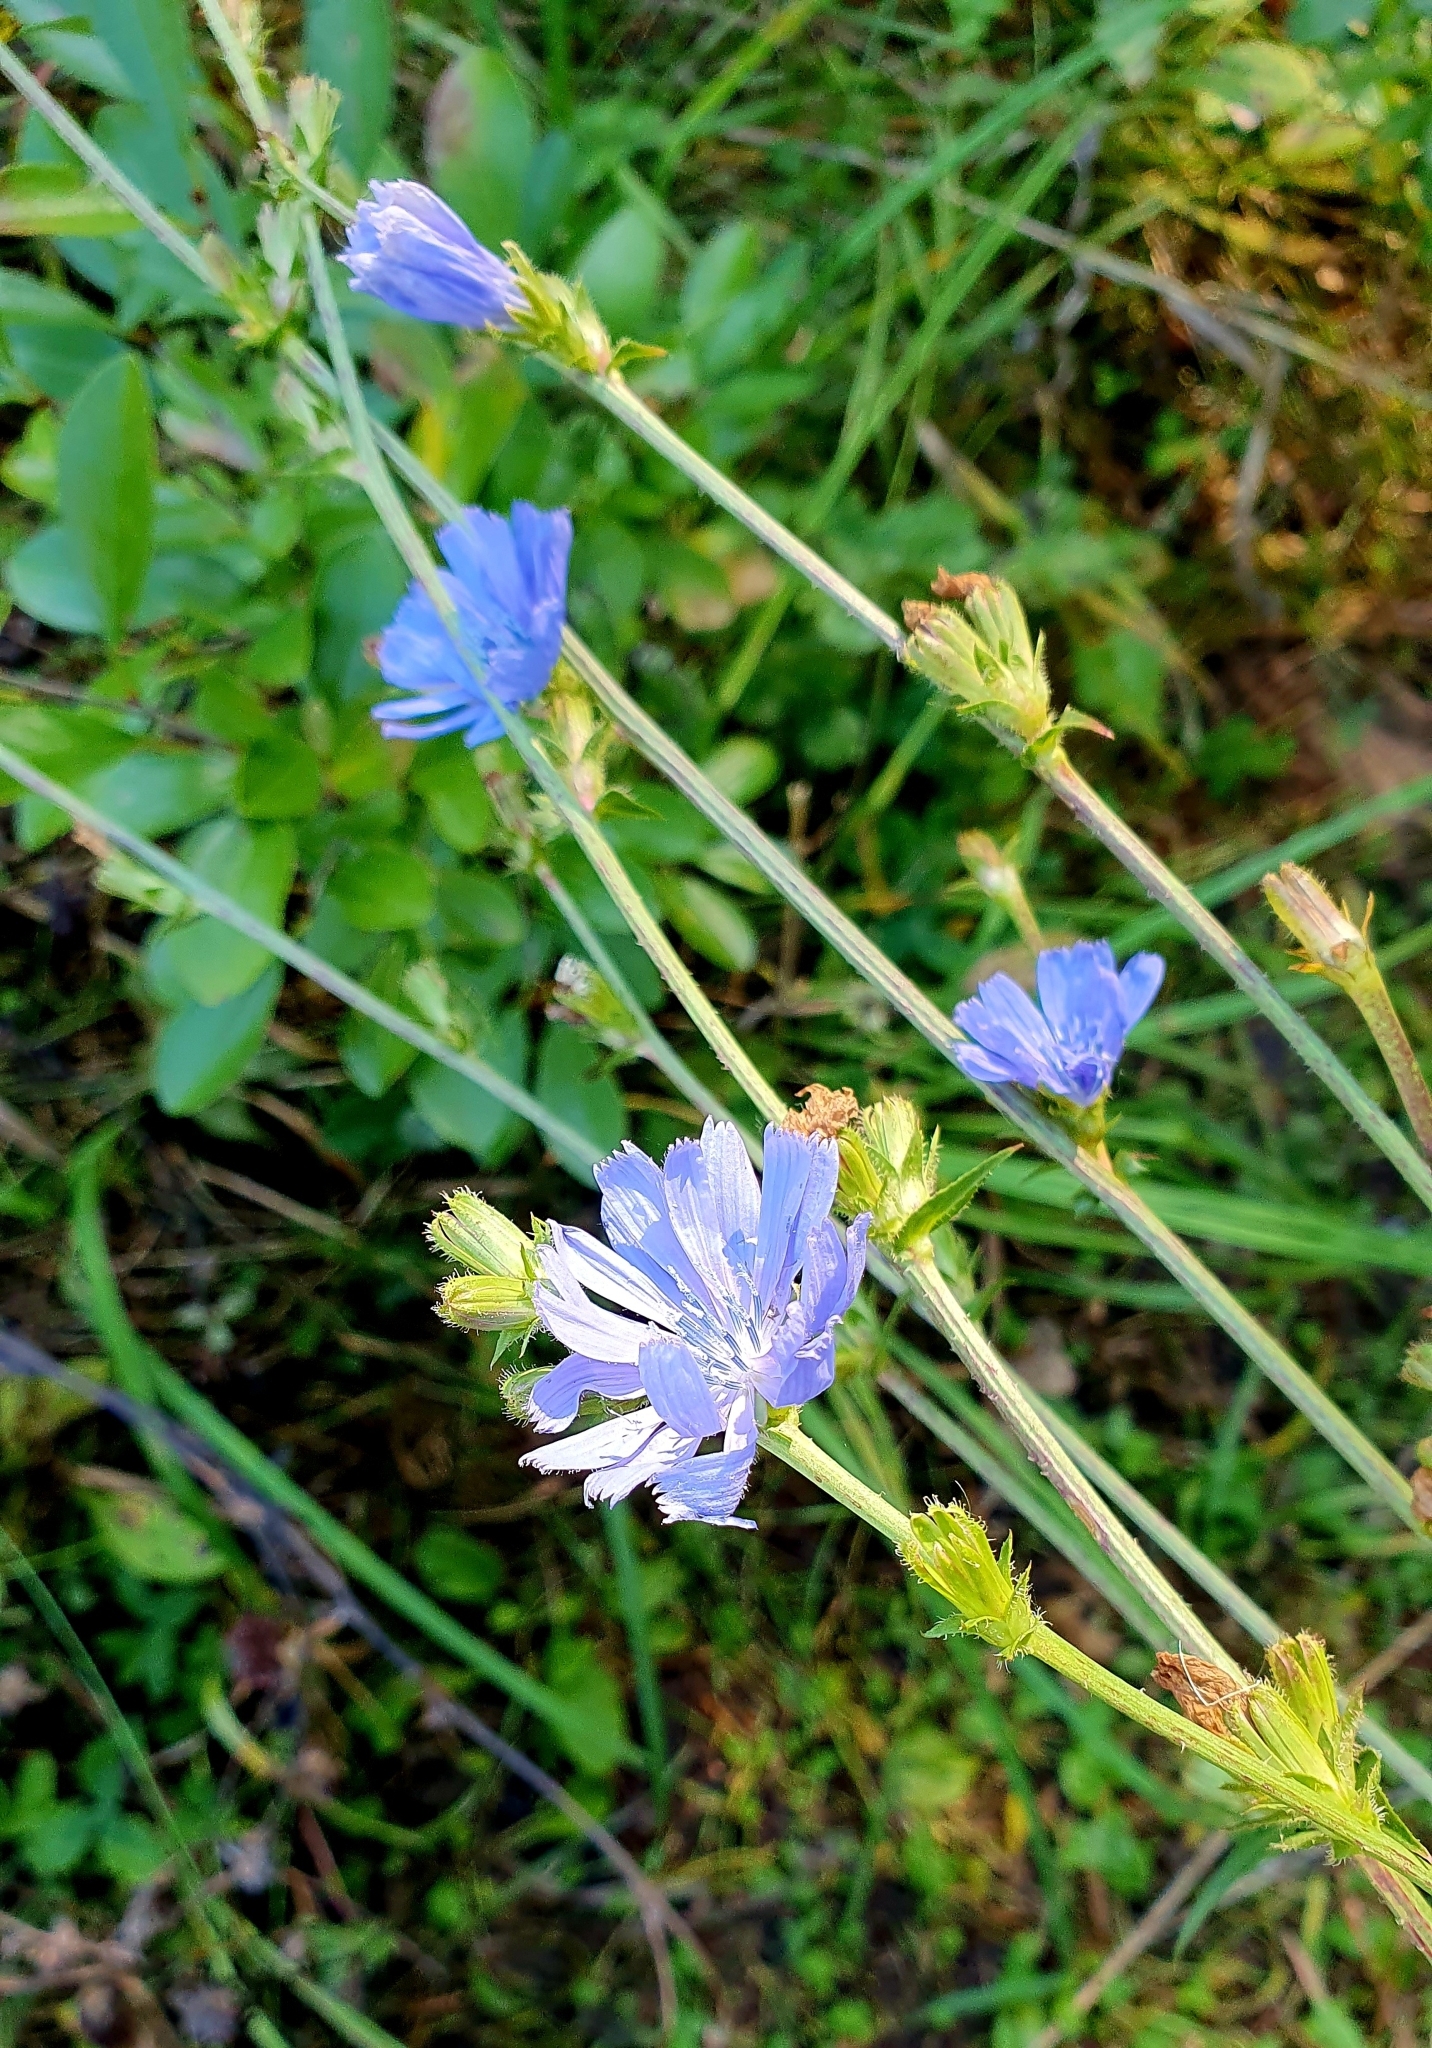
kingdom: Plantae
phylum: Tracheophyta
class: Magnoliopsida
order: Asterales
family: Asteraceae
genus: Cichorium
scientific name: Cichorium intybus
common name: Chicory
